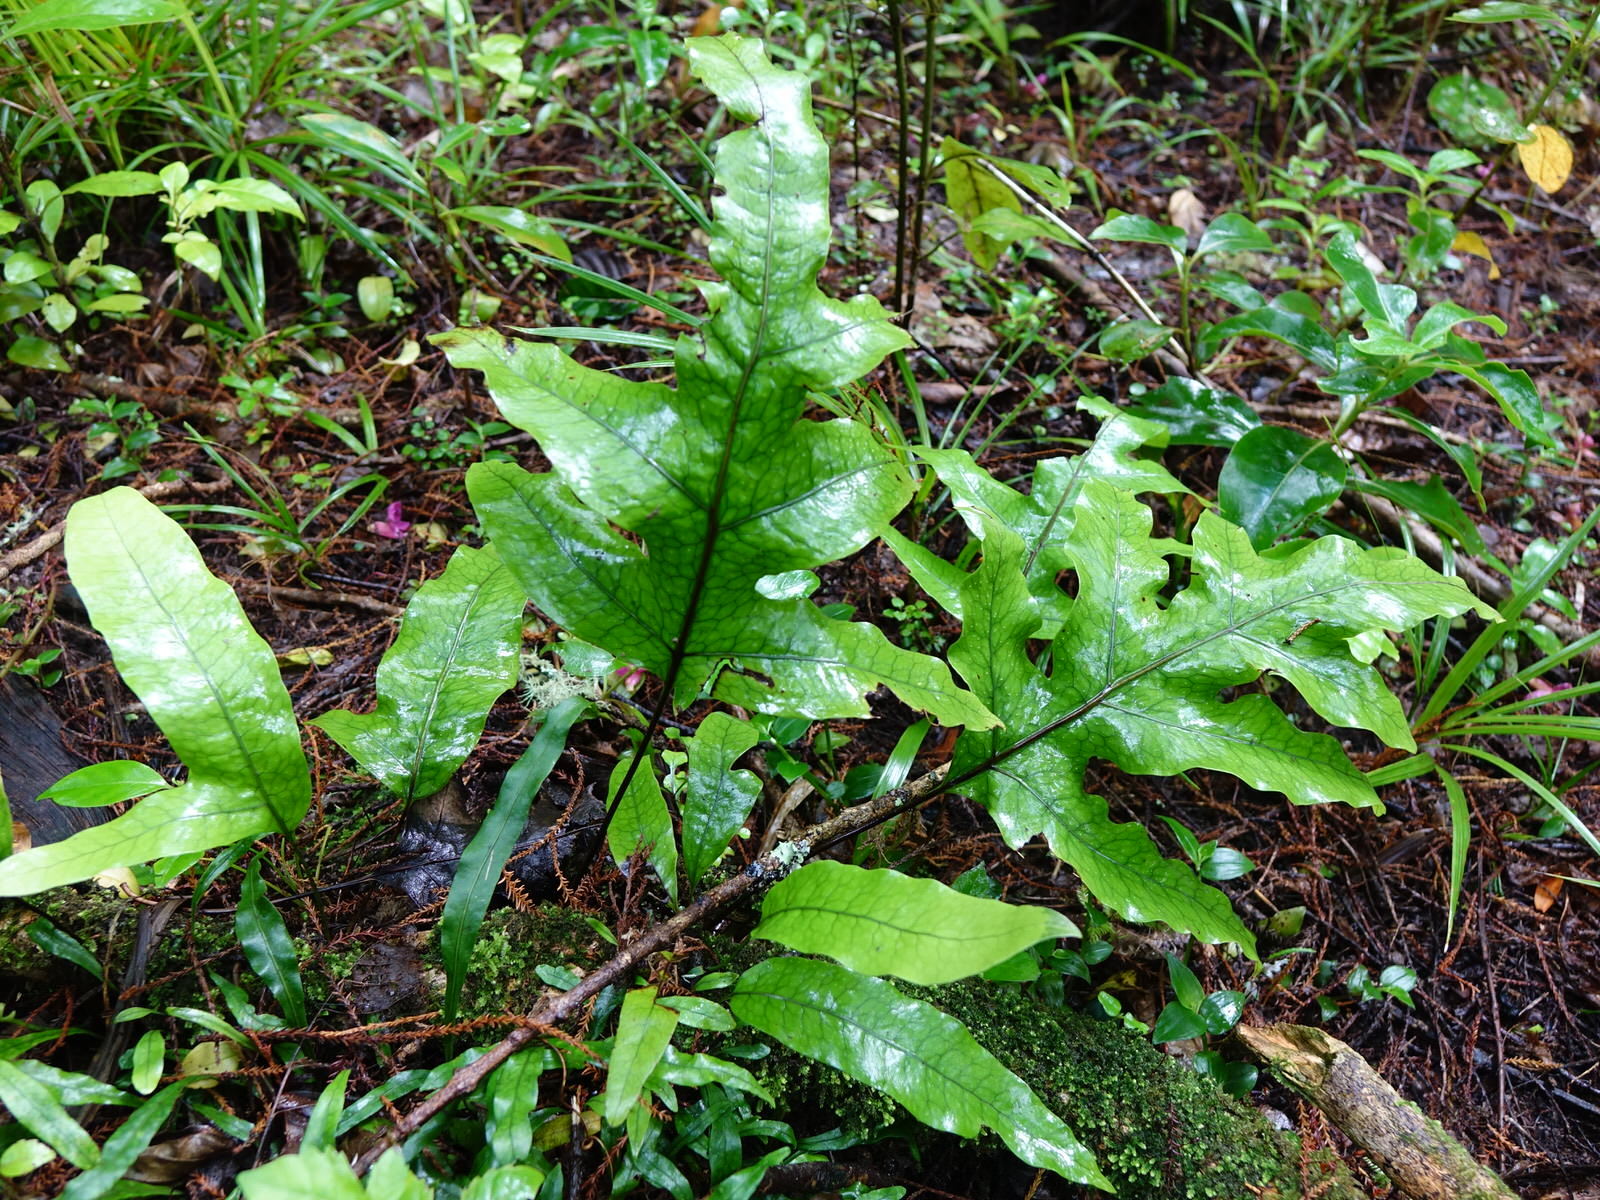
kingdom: Plantae
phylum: Tracheophyta
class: Polypodiopsida
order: Polypodiales
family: Polypodiaceae
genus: Lecanopteris
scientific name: Lecanopteris pustulata
